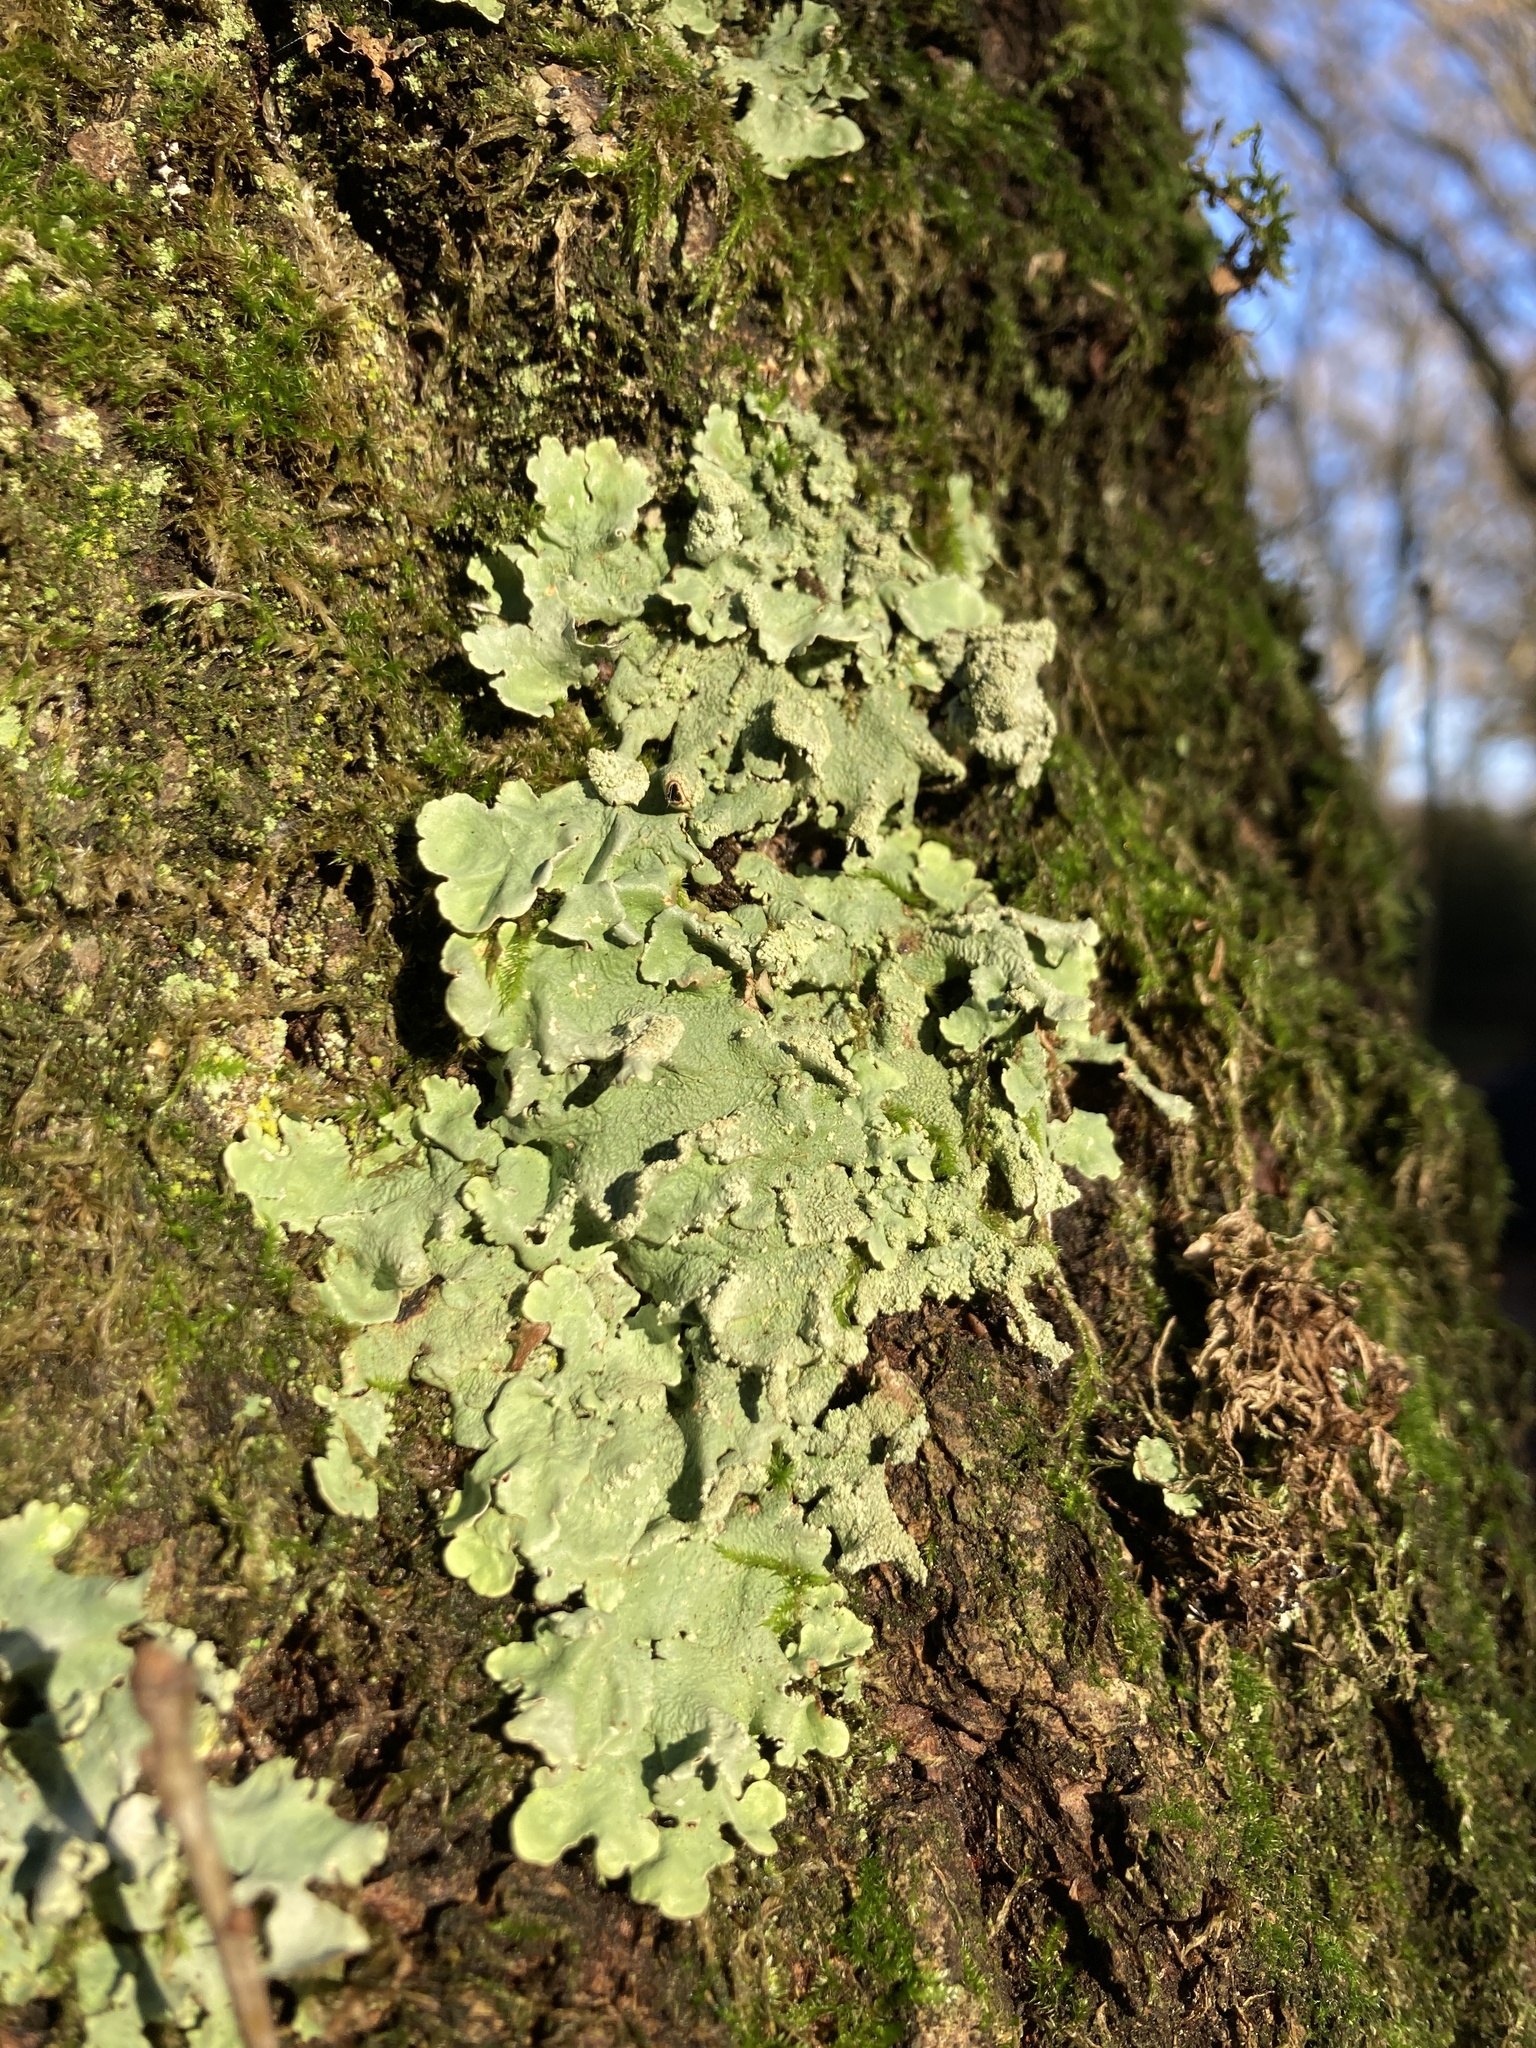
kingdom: Fungi
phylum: Ascomycota
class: Lecanoromycetes
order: Lecanorales
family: Parmeliaceae
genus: Flavoparmelia
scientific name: Flavoparmelia caperata
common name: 40-mile per hour lichen
